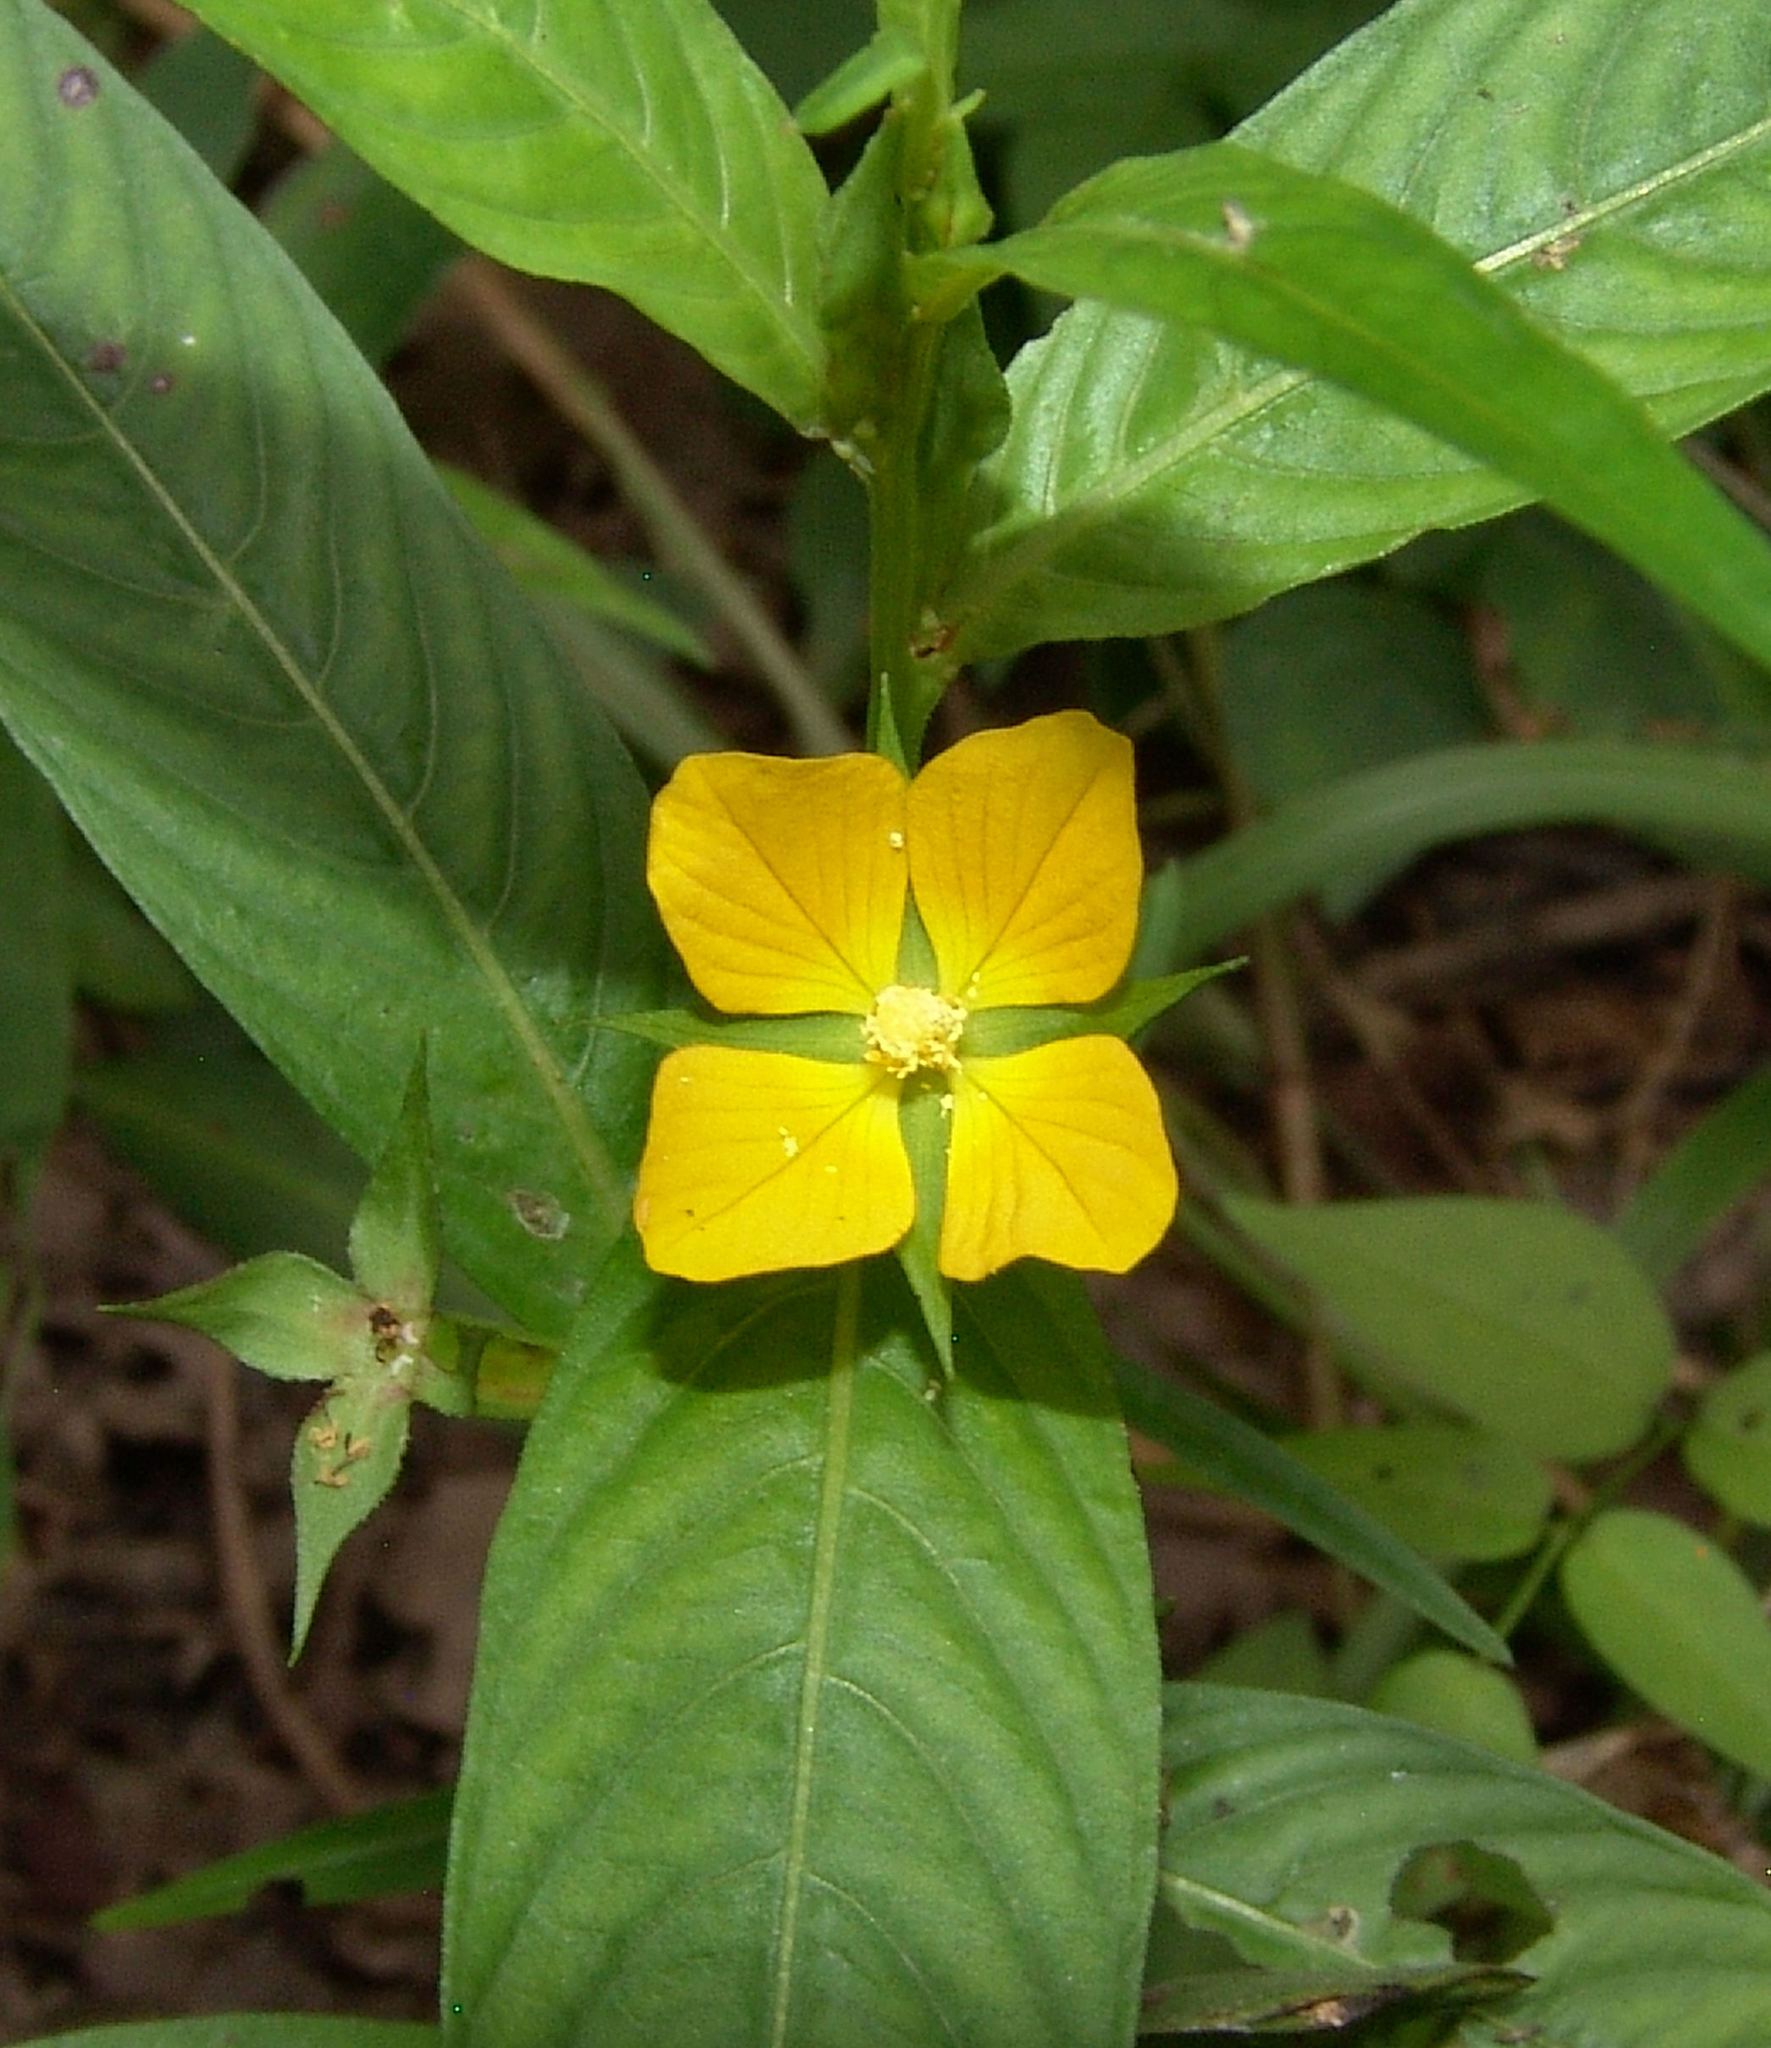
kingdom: Plantae
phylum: Tracheophyta
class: Magnoliopsida
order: Myrtales
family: Onagraceae
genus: Ludwigia
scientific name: Ludwigia decurrens
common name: Winged water-primrose
